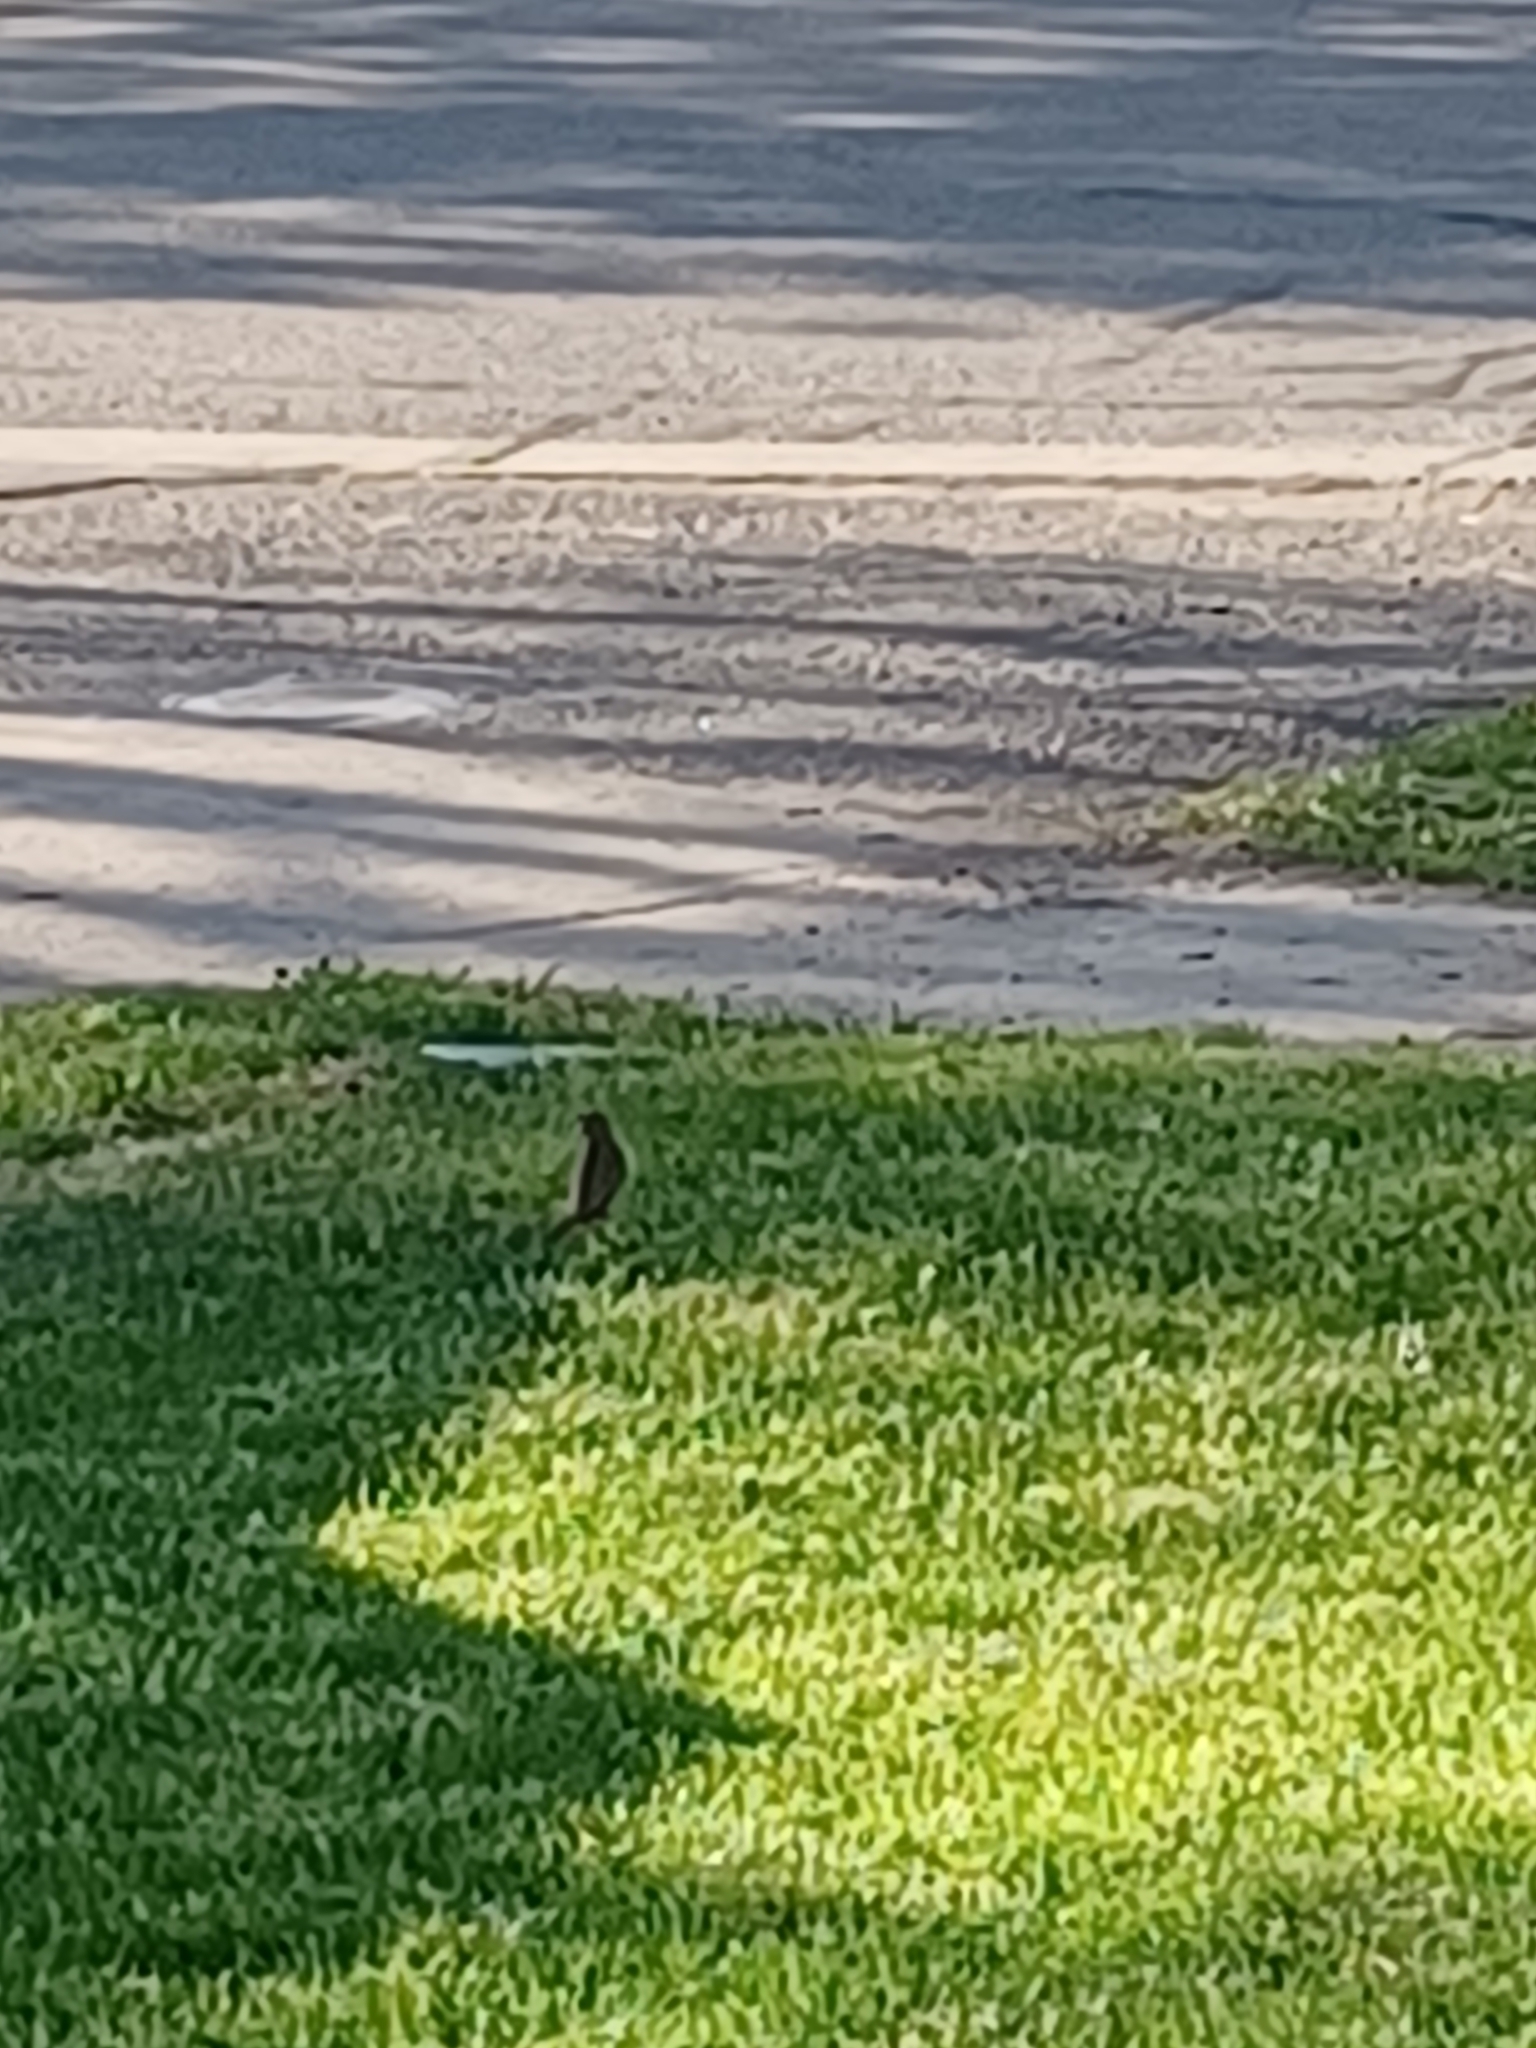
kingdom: Animalia
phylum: Chordata
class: Aves
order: Passeriformes
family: Passeridae
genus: Passer
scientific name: Passer domesticus
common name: House sparrow
